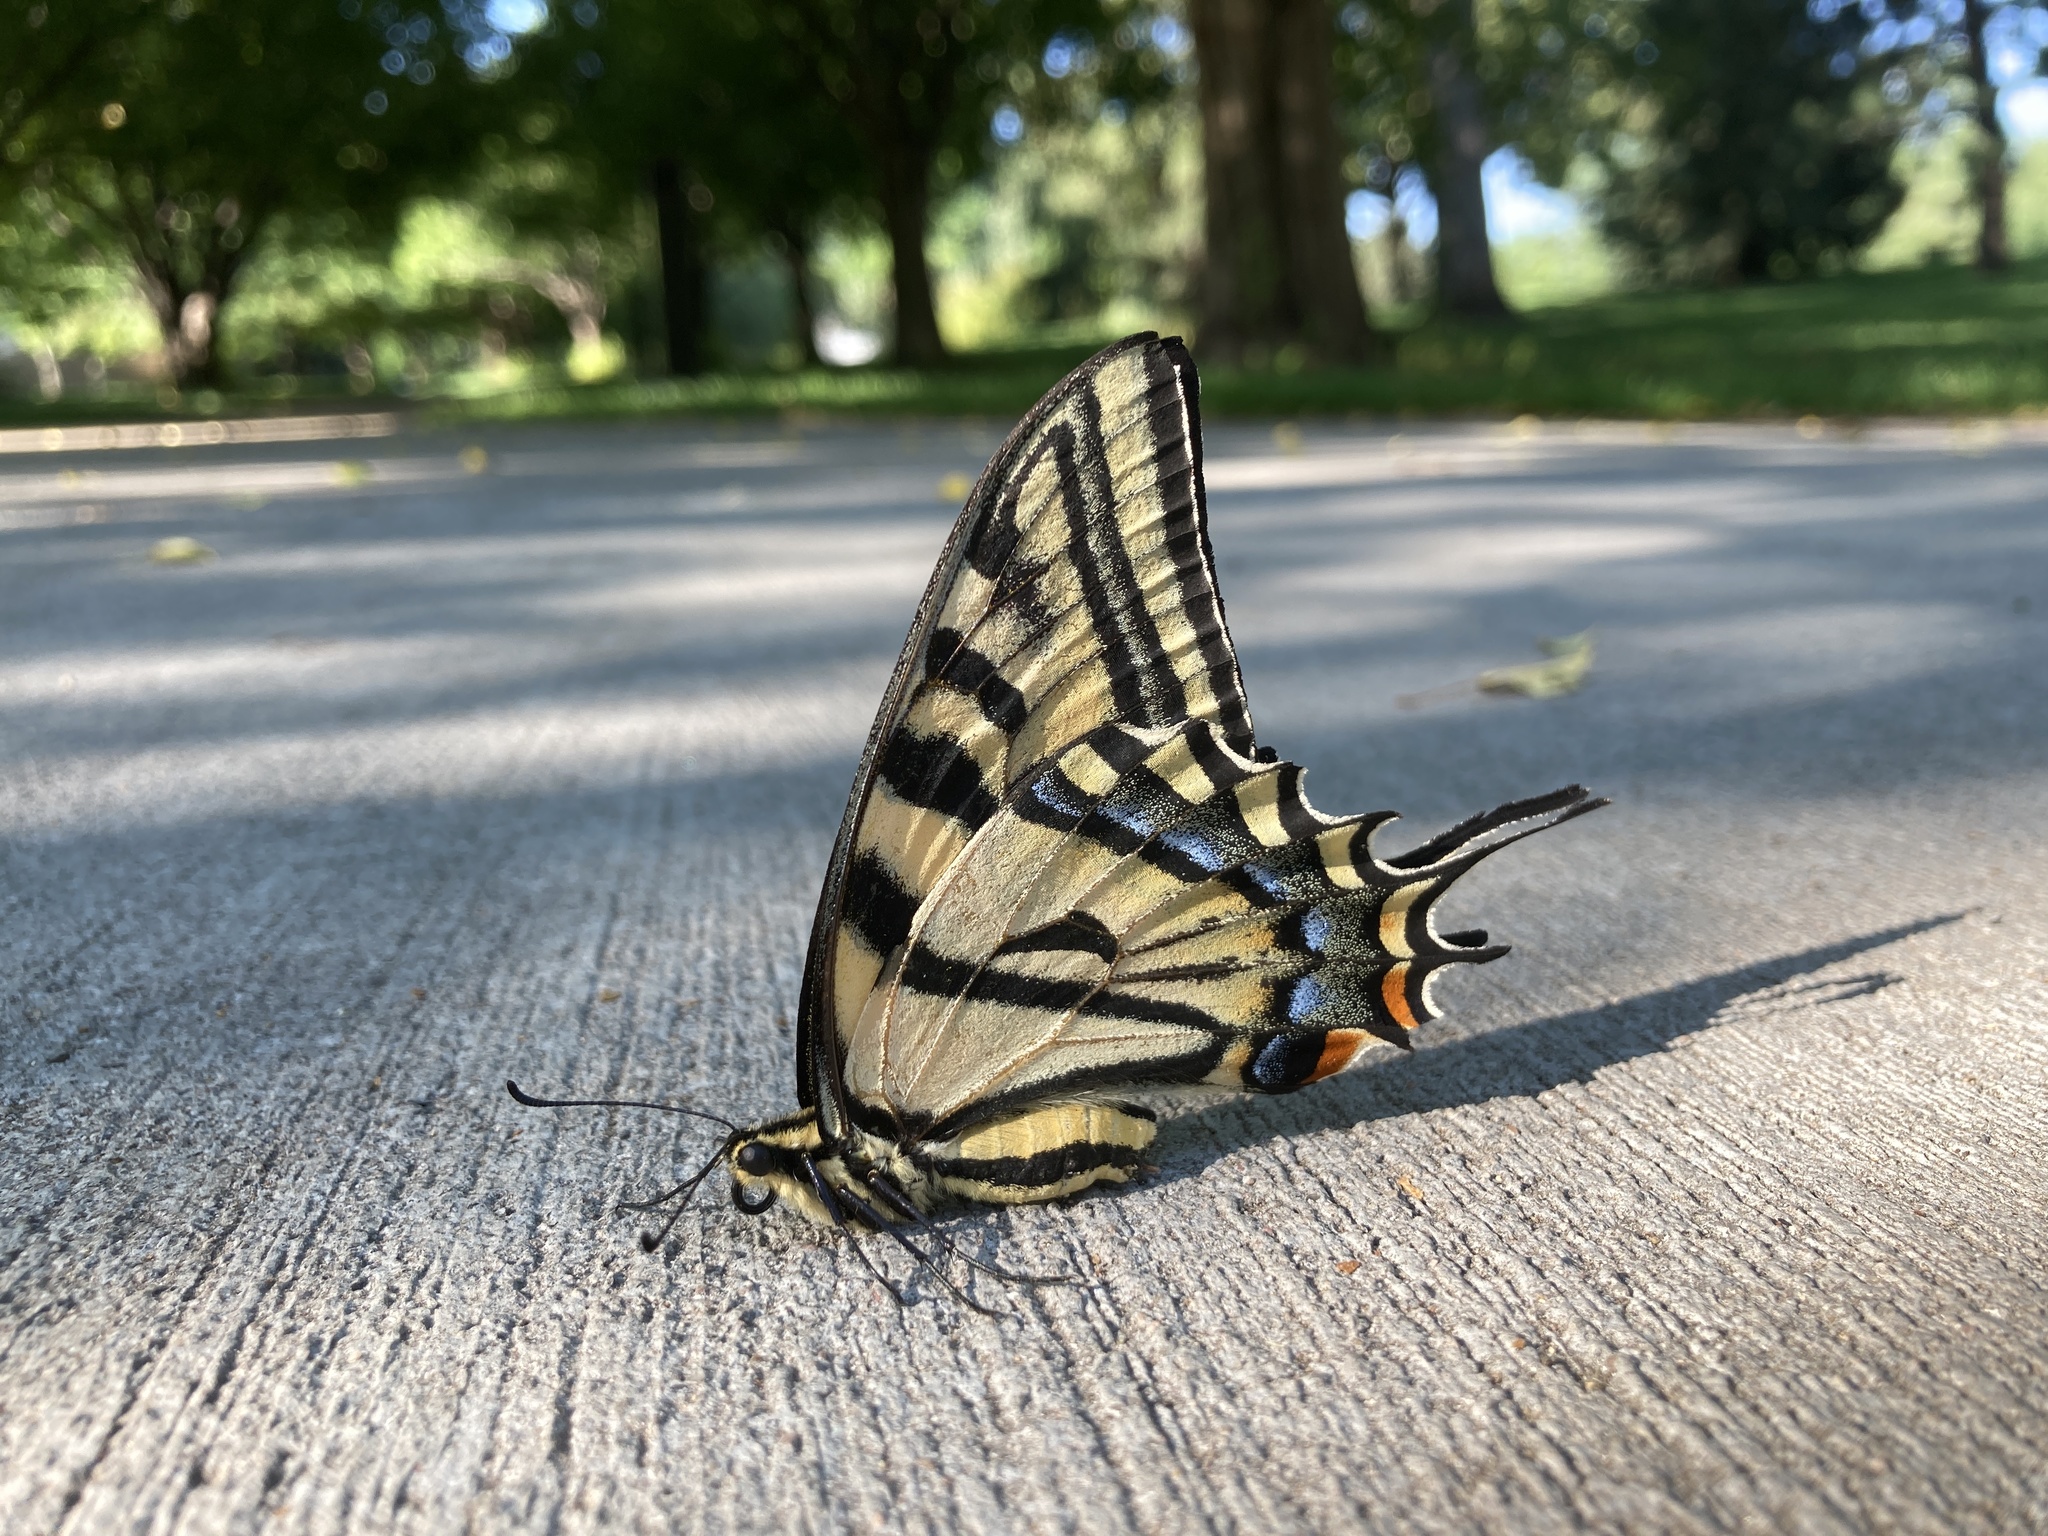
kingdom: Animalia
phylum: Arthropoda
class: Insecta
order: Lepidoptera
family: Papilionidae
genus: Papilio
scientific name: Papilio multicaudata
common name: Two-tailed tiger swallowtail
